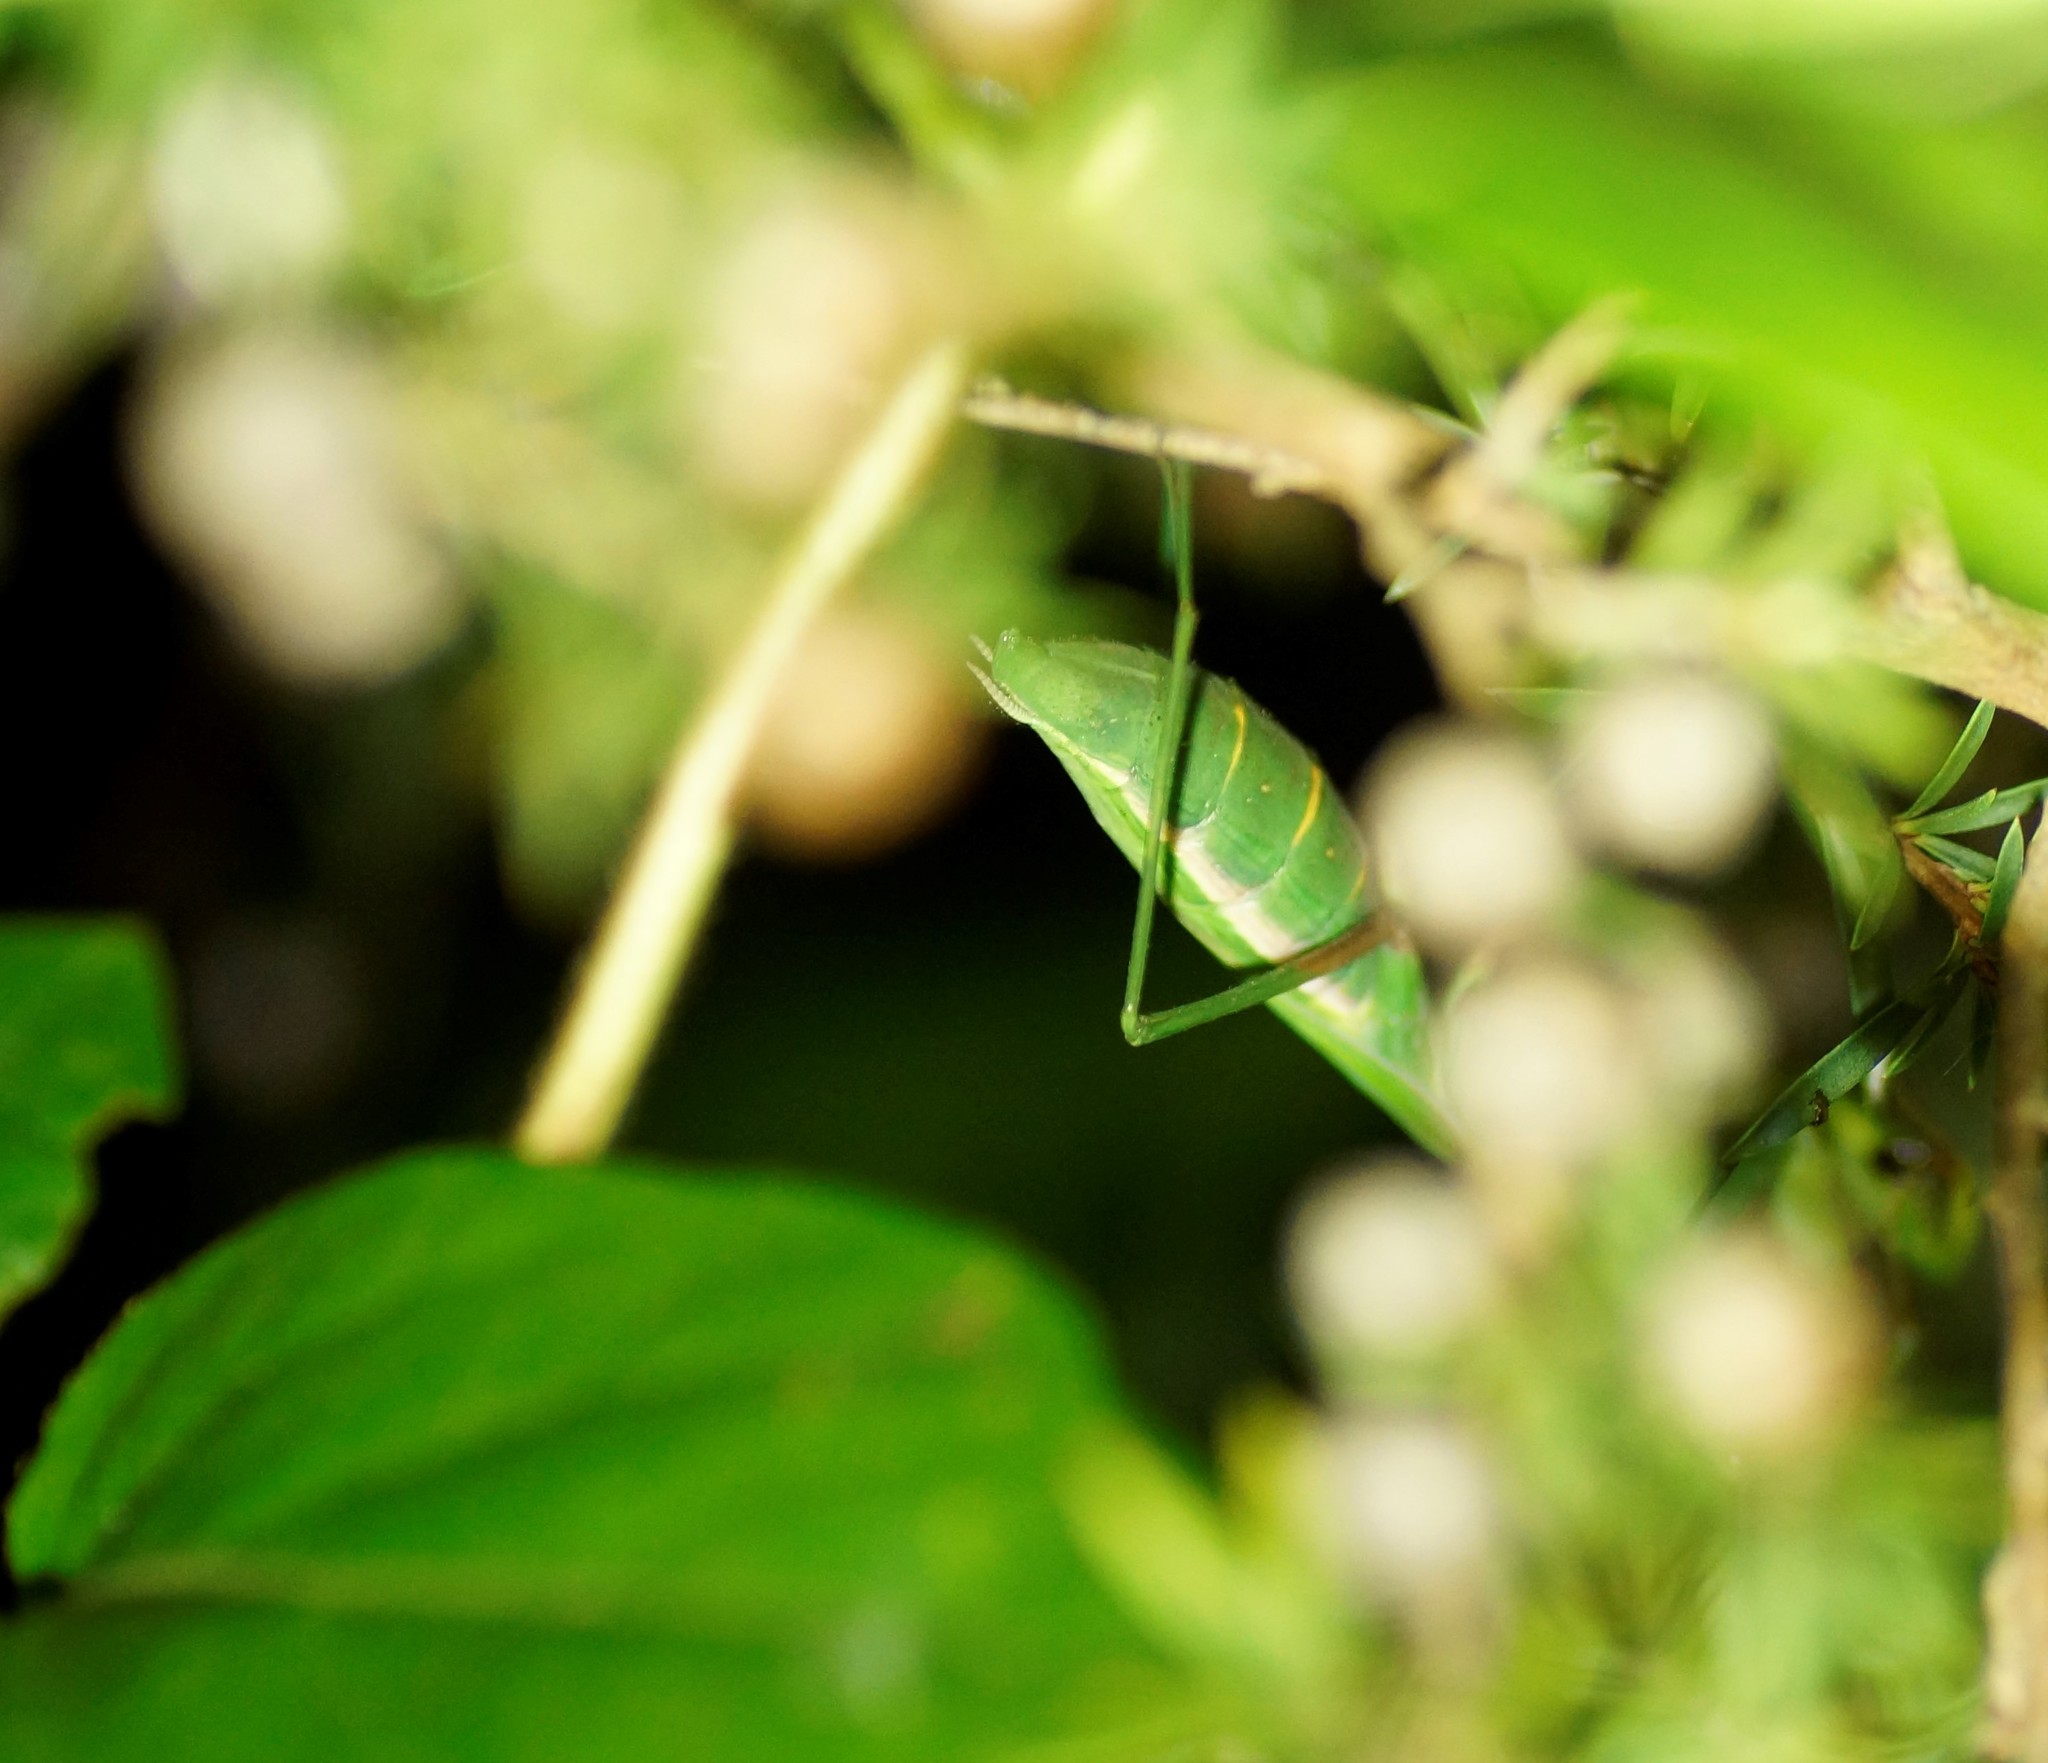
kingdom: Animalia
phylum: Arthropoda
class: Insecta
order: Mantodea
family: Mantidae
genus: Pseudomantis
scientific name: Pseudomantis albofimbriata
